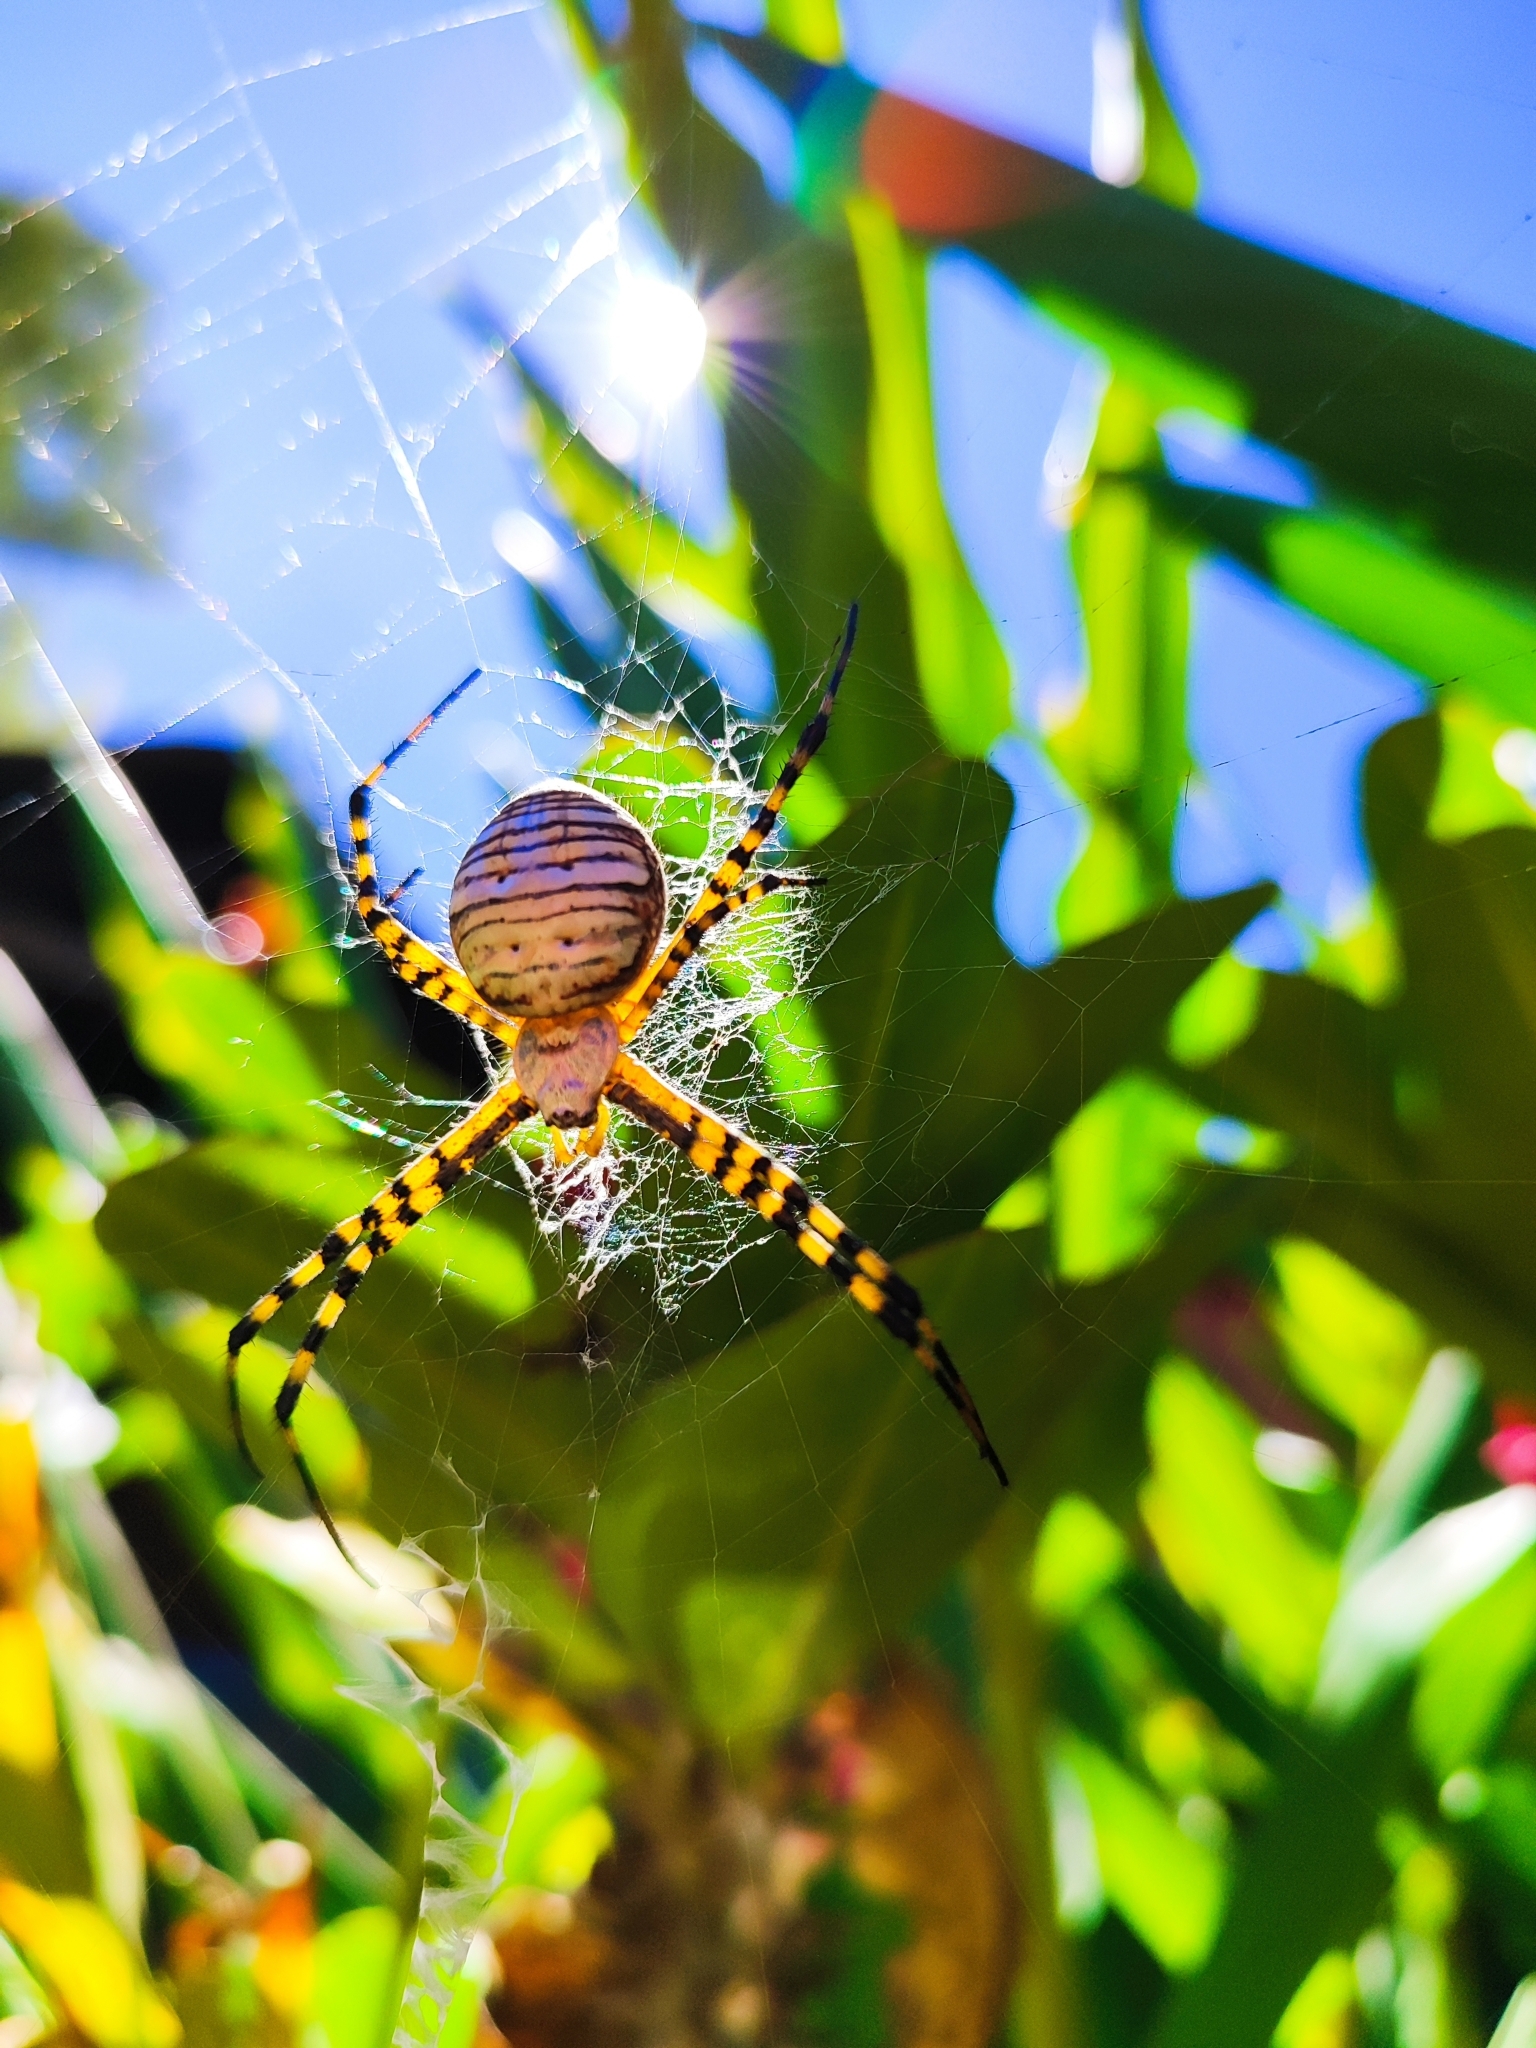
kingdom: Animalia
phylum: Arthropoda
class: Arachnida
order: Araneae
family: Araneidae
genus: Argiope
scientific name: Argiope trifasciata
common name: Banded garden spider
